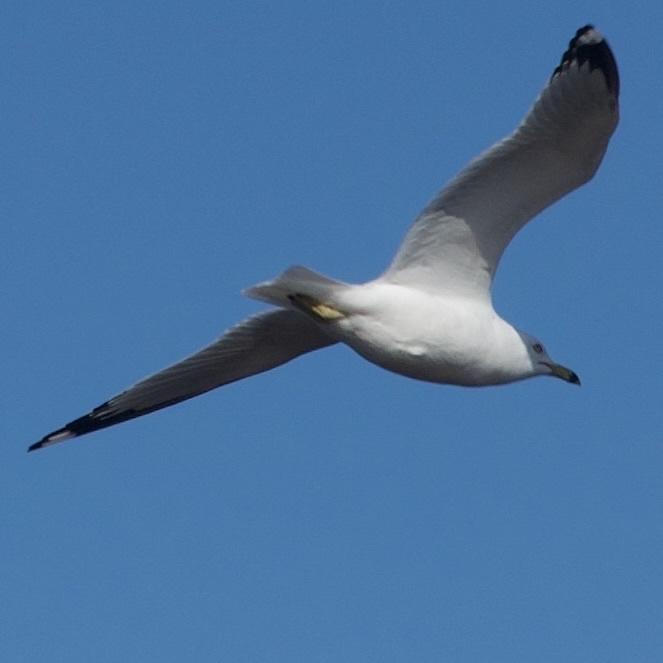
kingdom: Animalia
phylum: Chordata
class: Aves
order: Charadriiformes
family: Laridae
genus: Larus
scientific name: Larus delawarensis
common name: Ring-billed gull
